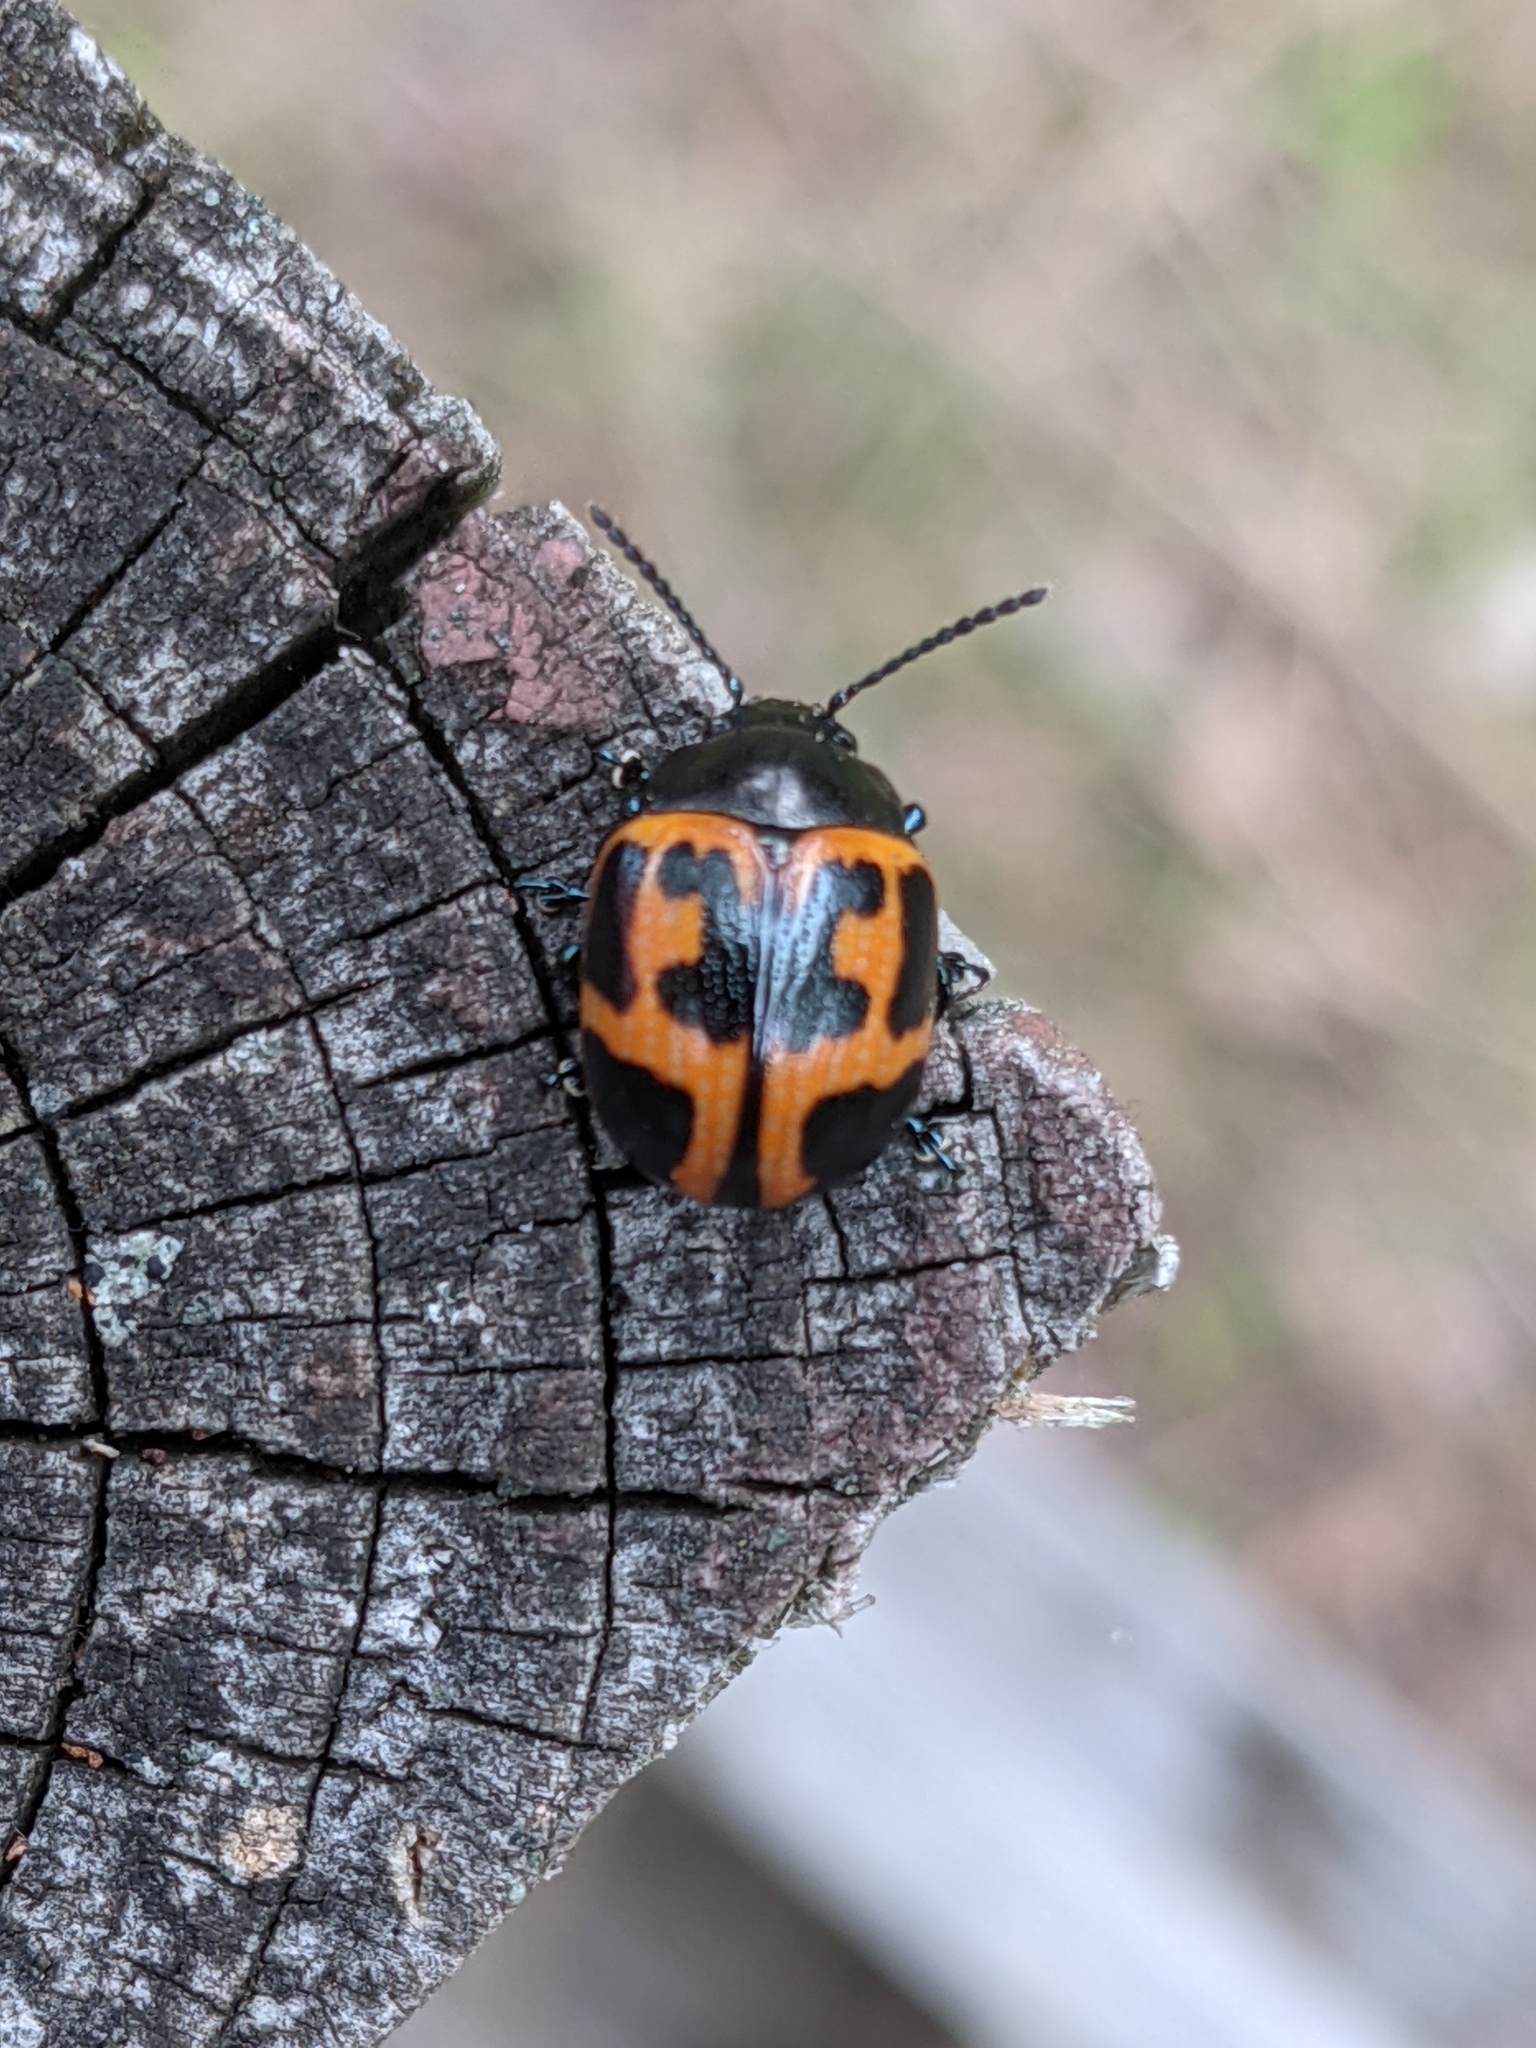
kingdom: Animalia
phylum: Arthropoda
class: Insecta
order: Coleoptera
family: Chrysomelidae
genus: Labidomera
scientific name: Labidomera clivicollis
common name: Swamp milkweed leaf beetle
